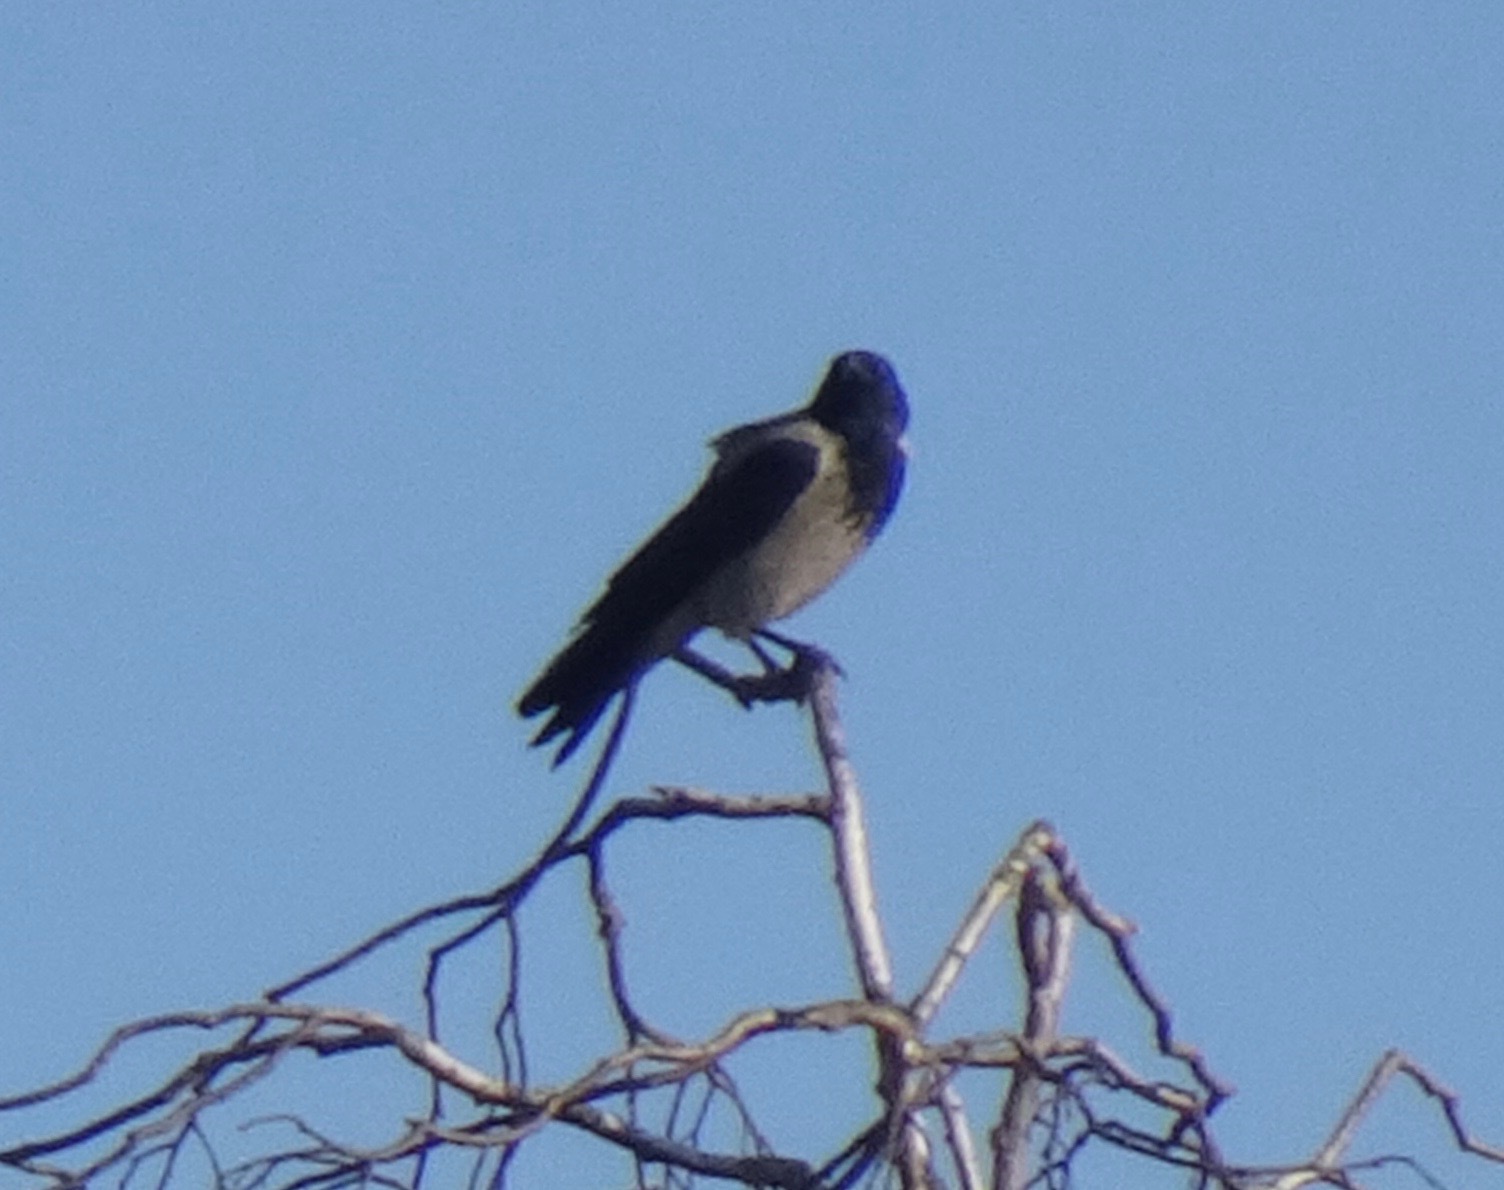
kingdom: Animalia
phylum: Chordata
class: Aves
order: Passeriformes
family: Corvidae
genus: Corvus
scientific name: Corvus cornix
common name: Hooded crow
